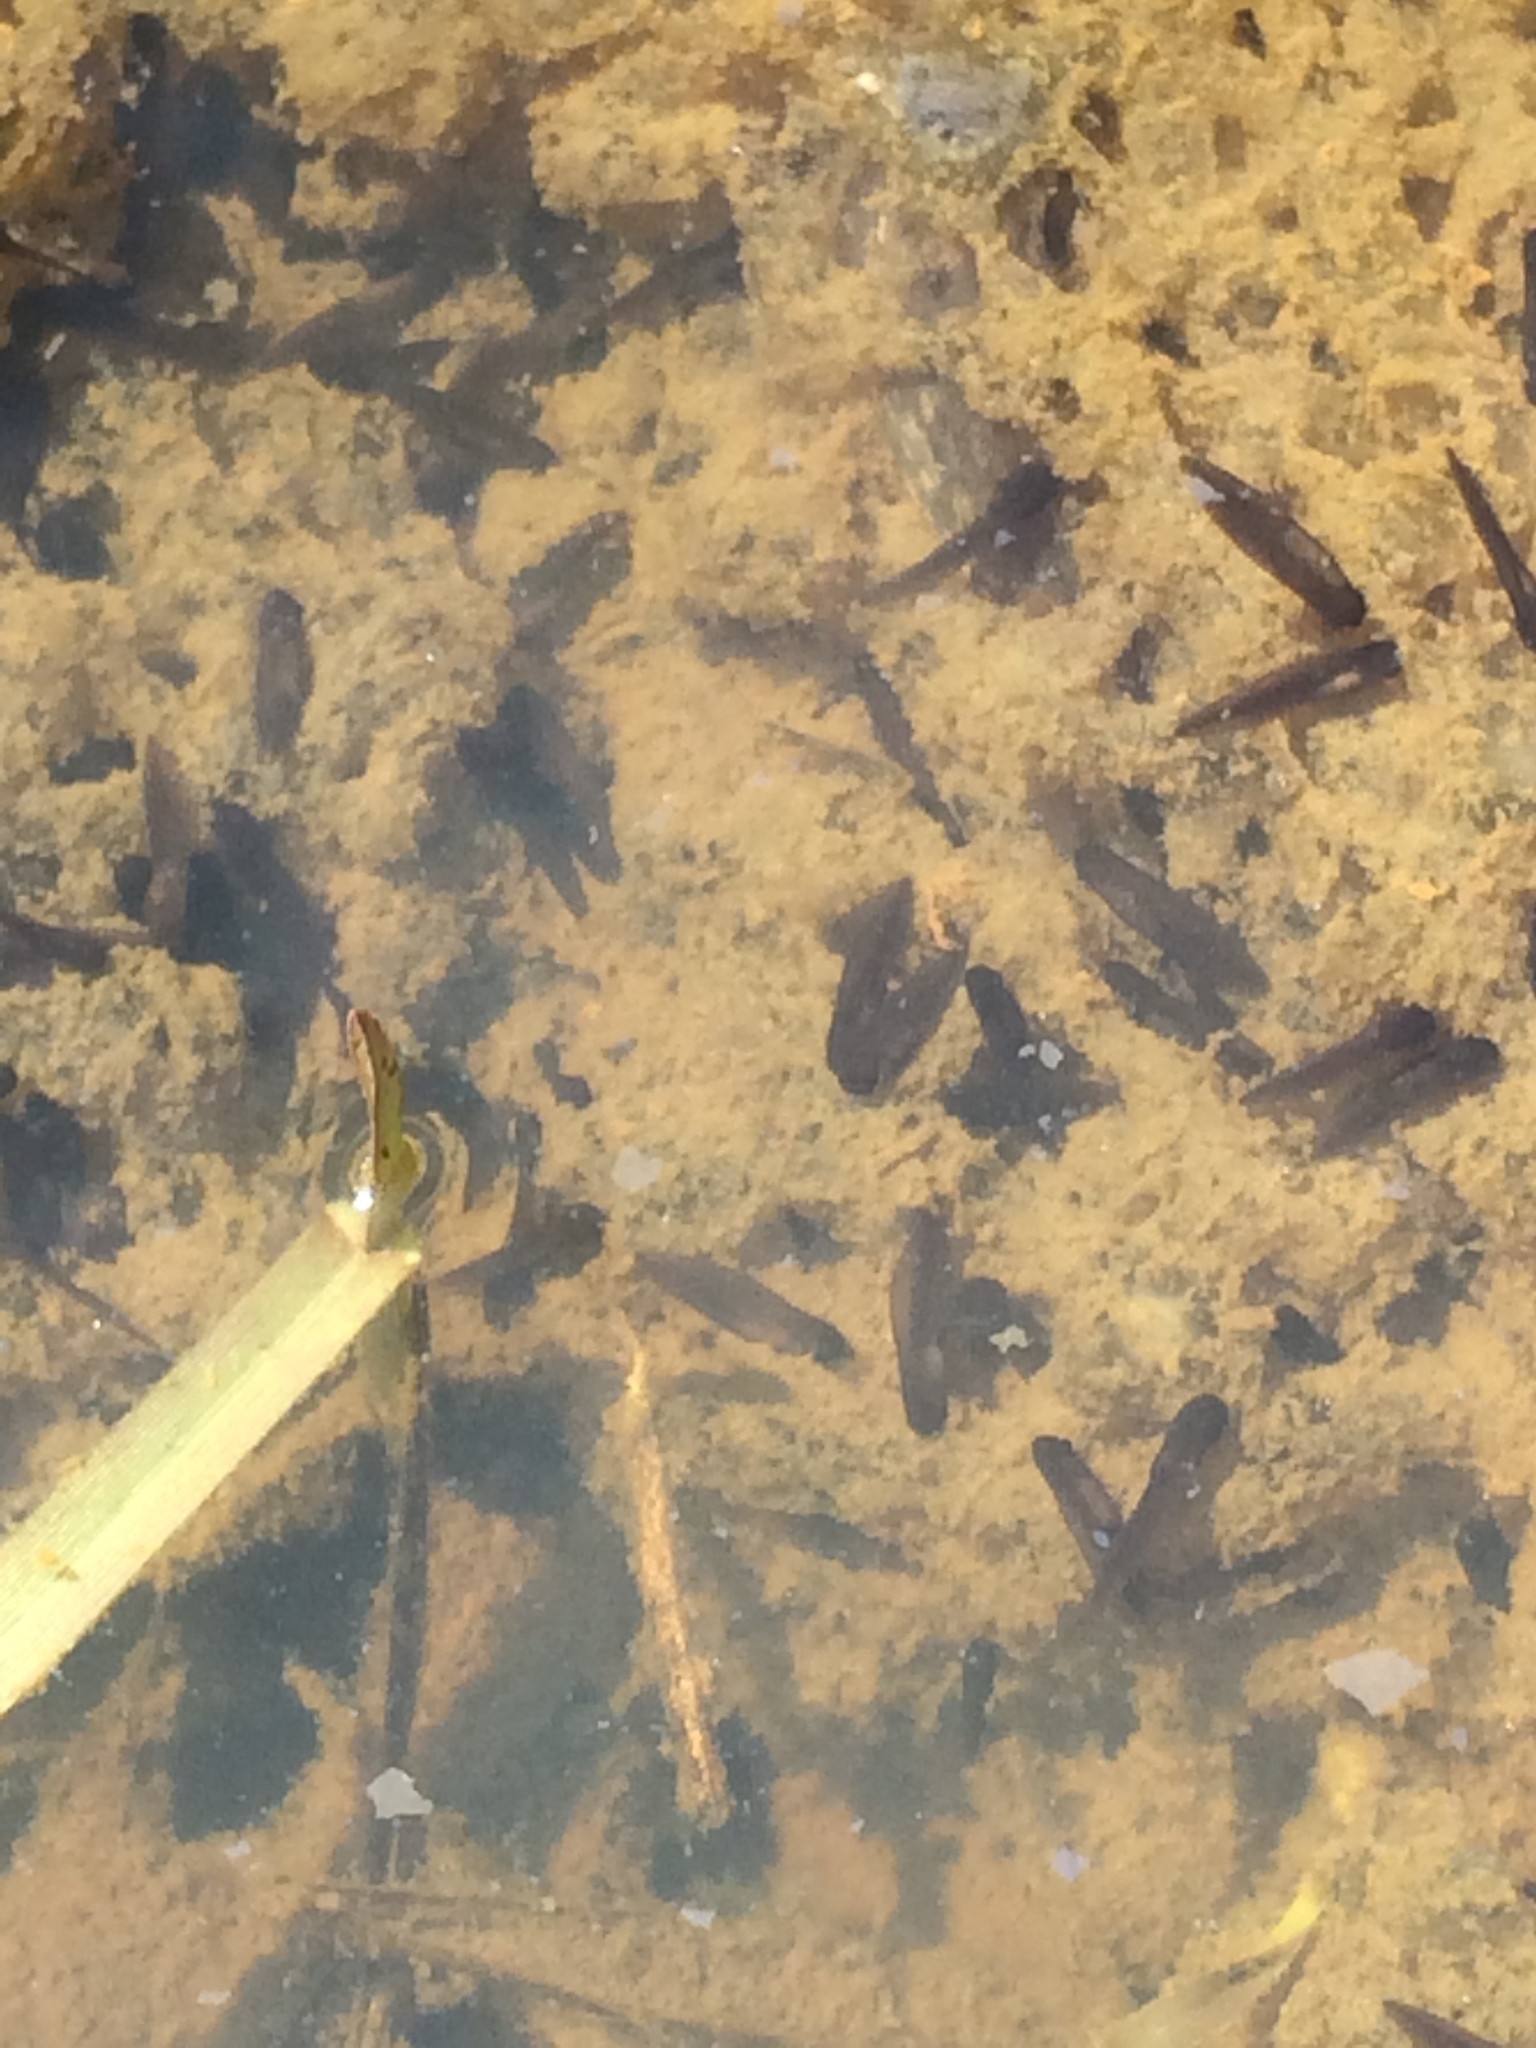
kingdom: Animalia
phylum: Chordata
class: Amphibia
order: Anura
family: Ranidae
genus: Lithobates
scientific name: Lithobates sylvaticus
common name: Wood frog
